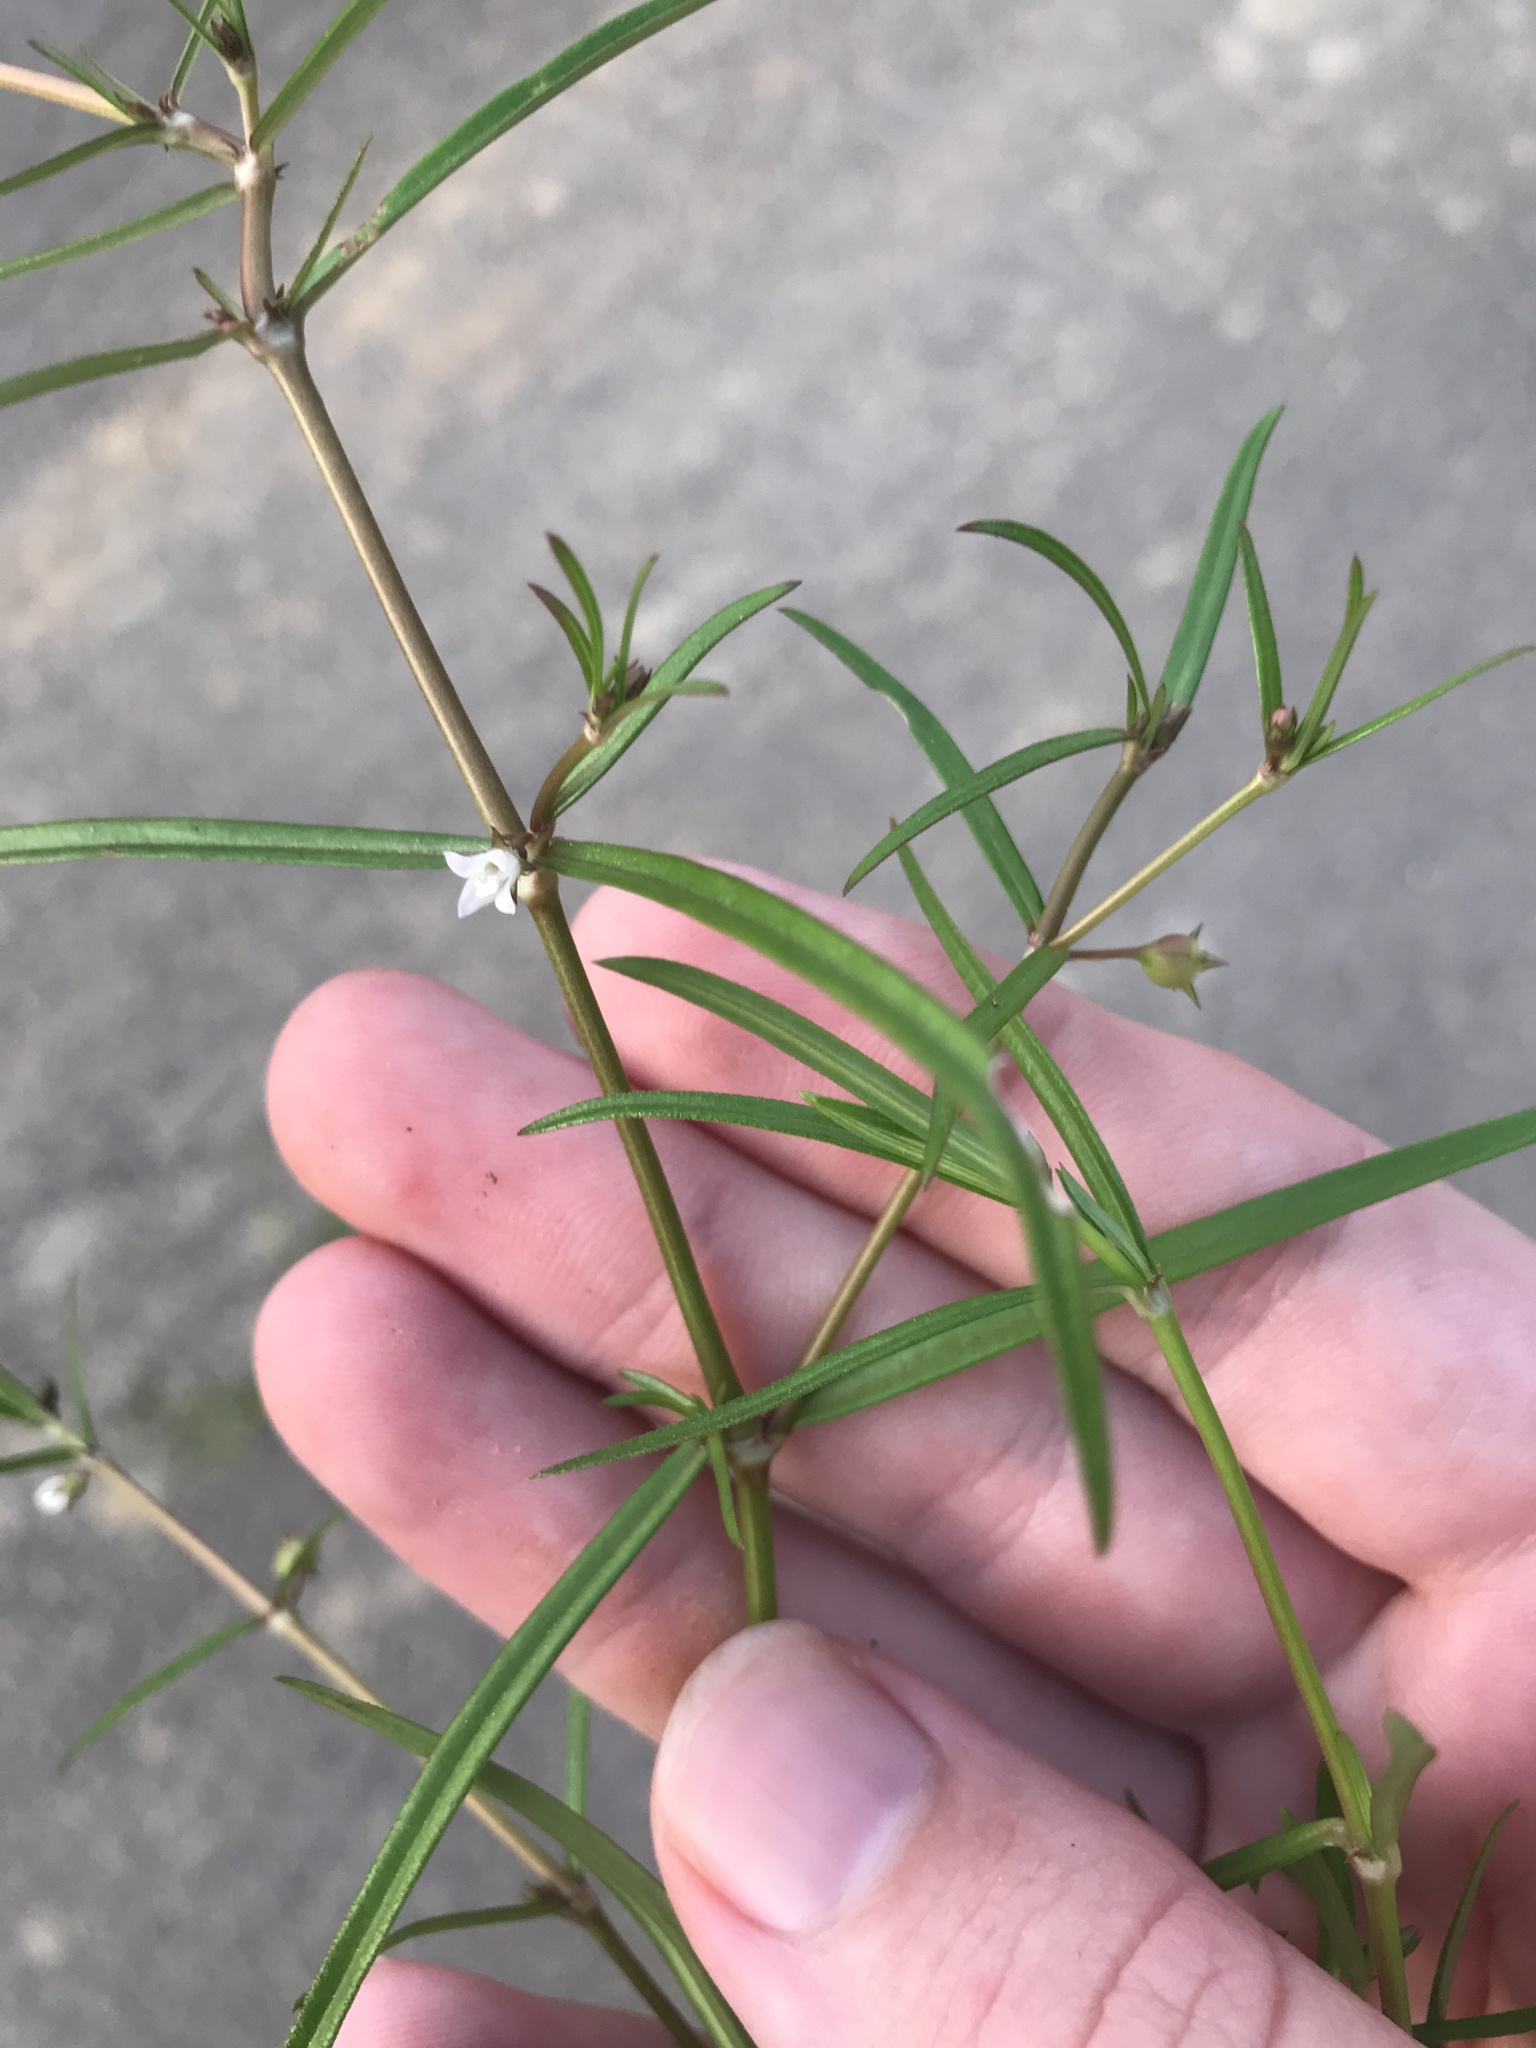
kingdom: Plantae
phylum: Tracheophyta
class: Magnoliopsida
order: Gentianales
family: Rubiaceae
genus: Scleromitrion
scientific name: Scleromitrion brachypodum
